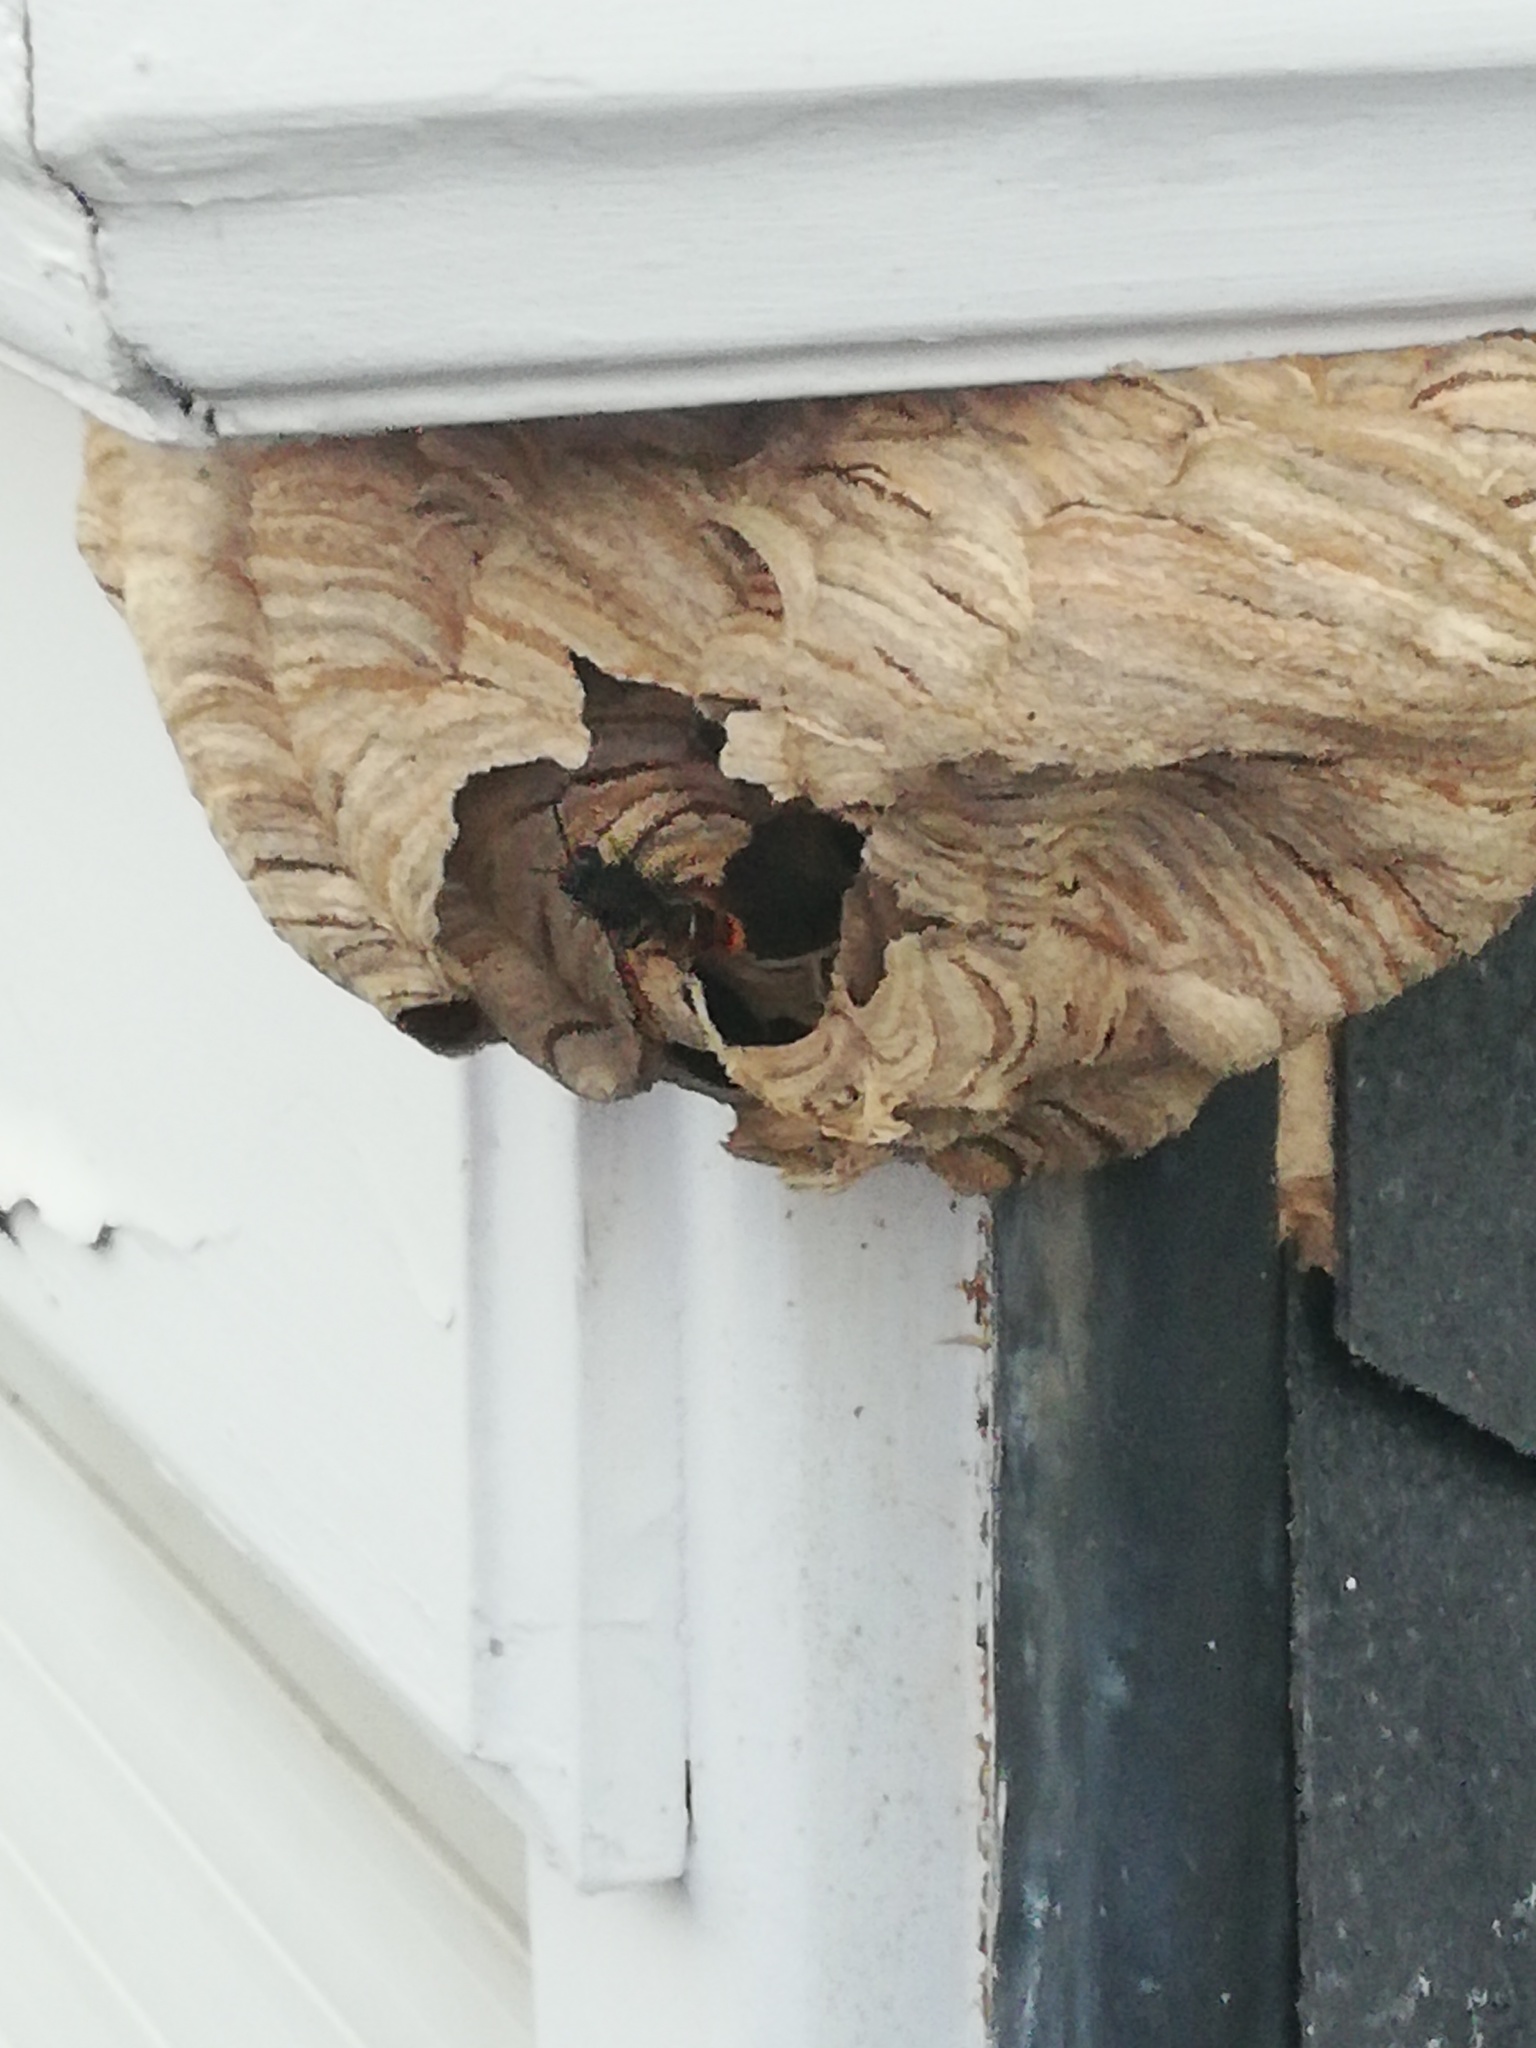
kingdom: Animalia
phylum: Arthropoda
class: Insecta
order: Hymenoptera
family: Vespidae
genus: Vespa
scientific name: Vespa velutina
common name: Asian hornet
